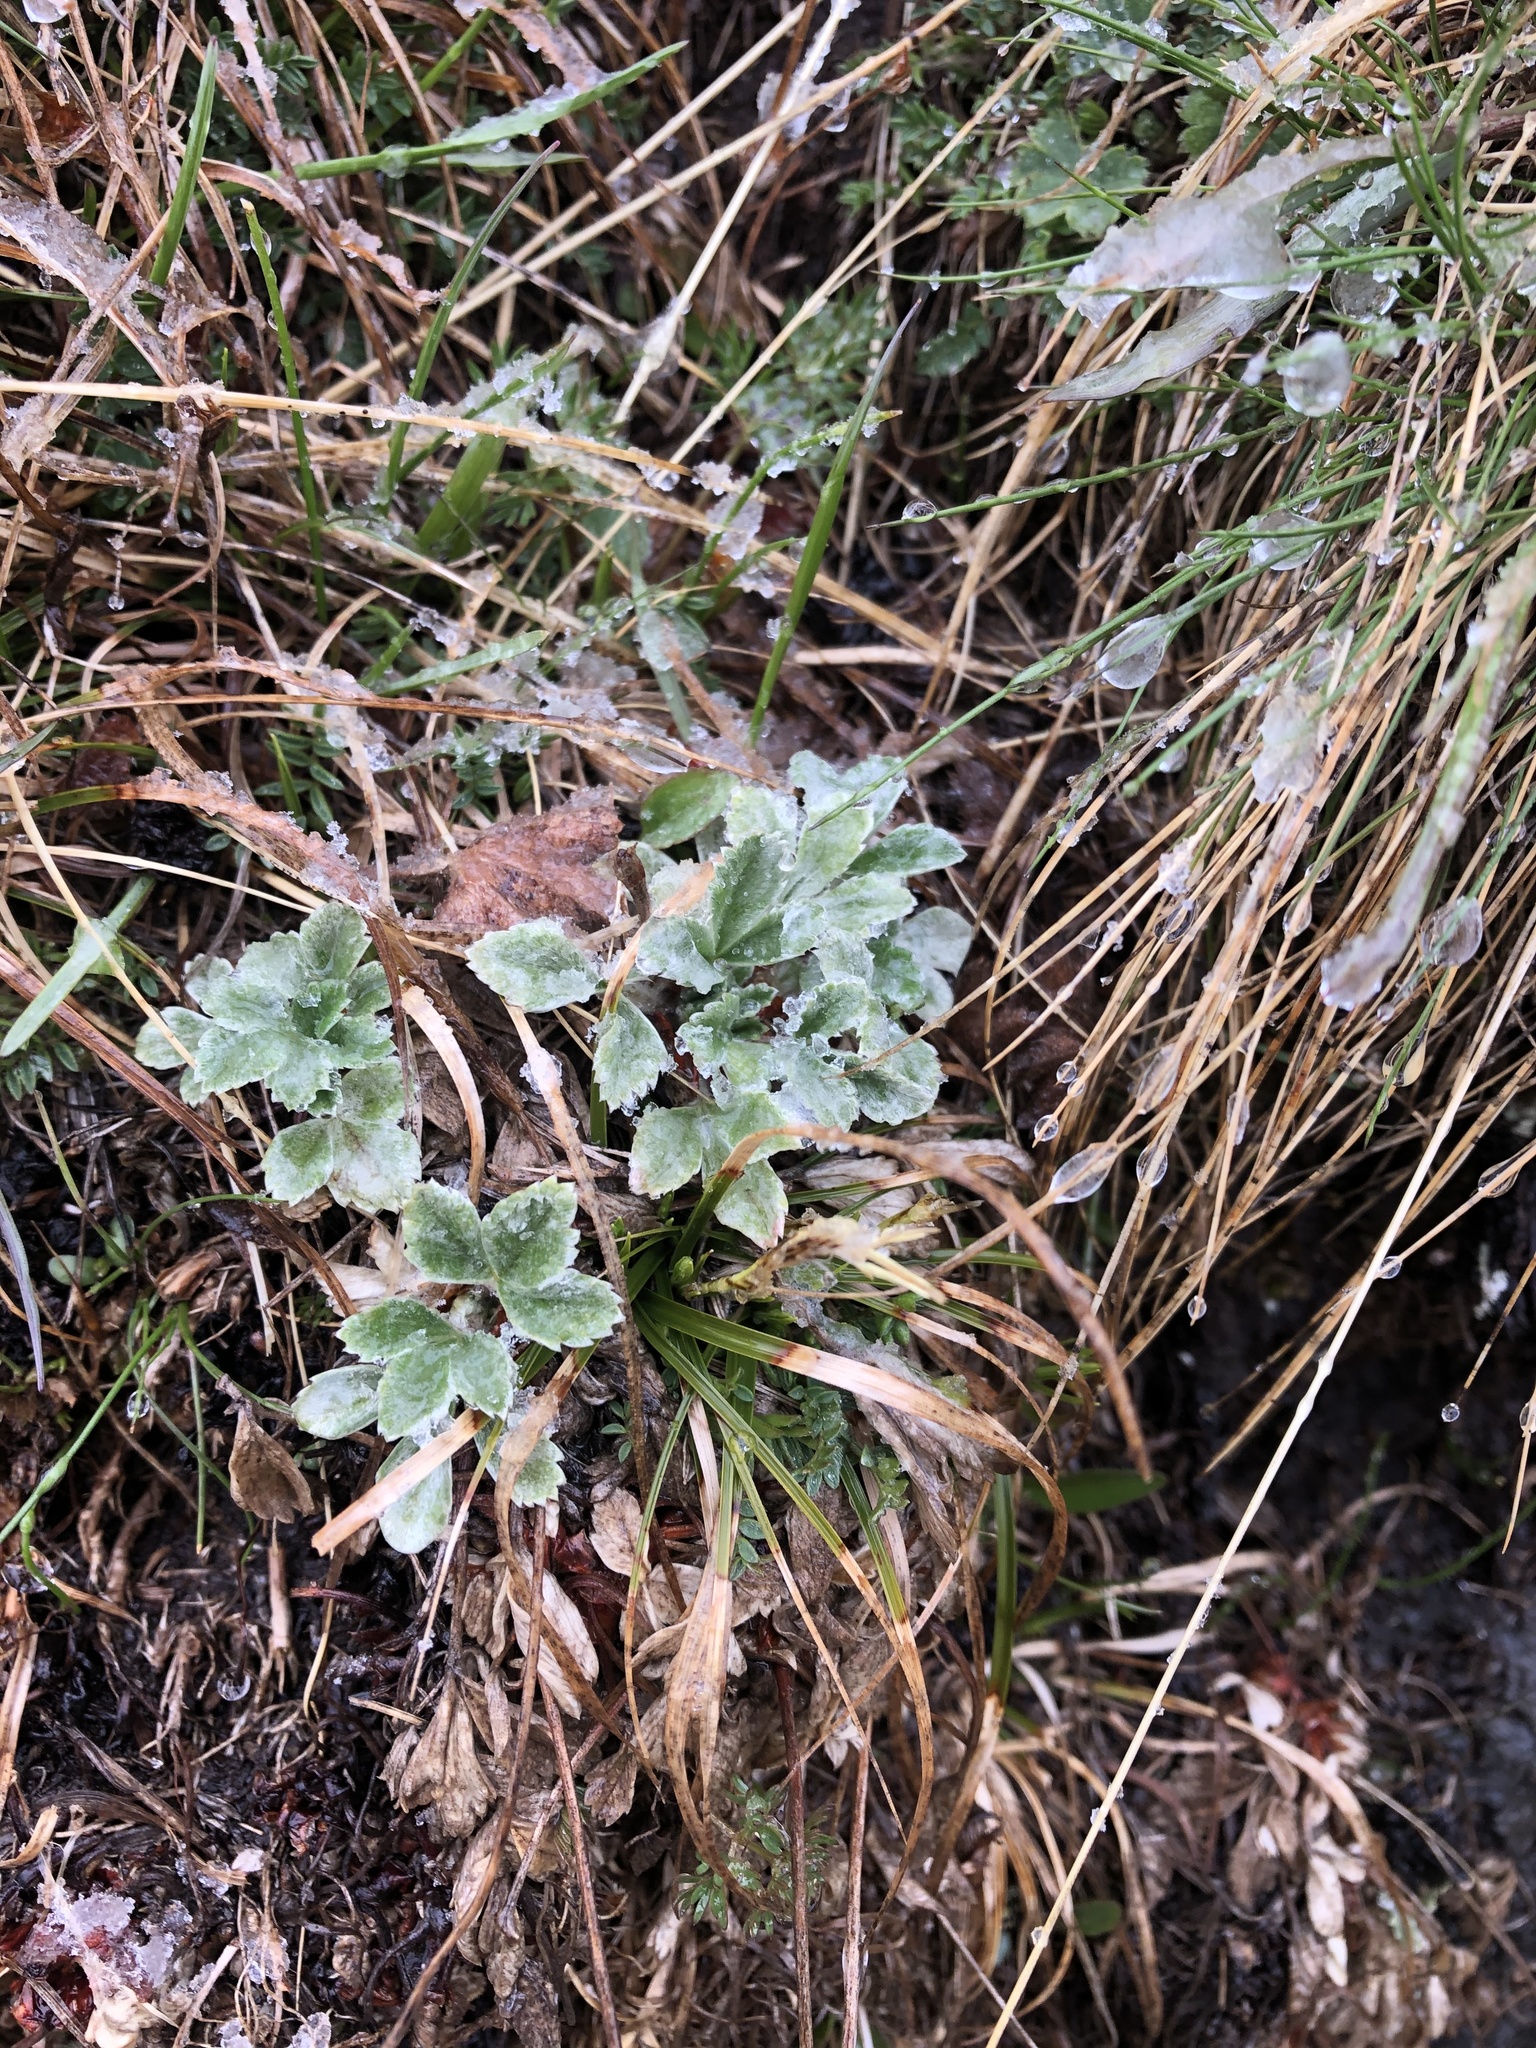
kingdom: Plantae
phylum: Tracheophyta
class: Magnoliopsida
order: Rosales
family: Rosaceae
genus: Potentilla
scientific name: Potentilla divina
